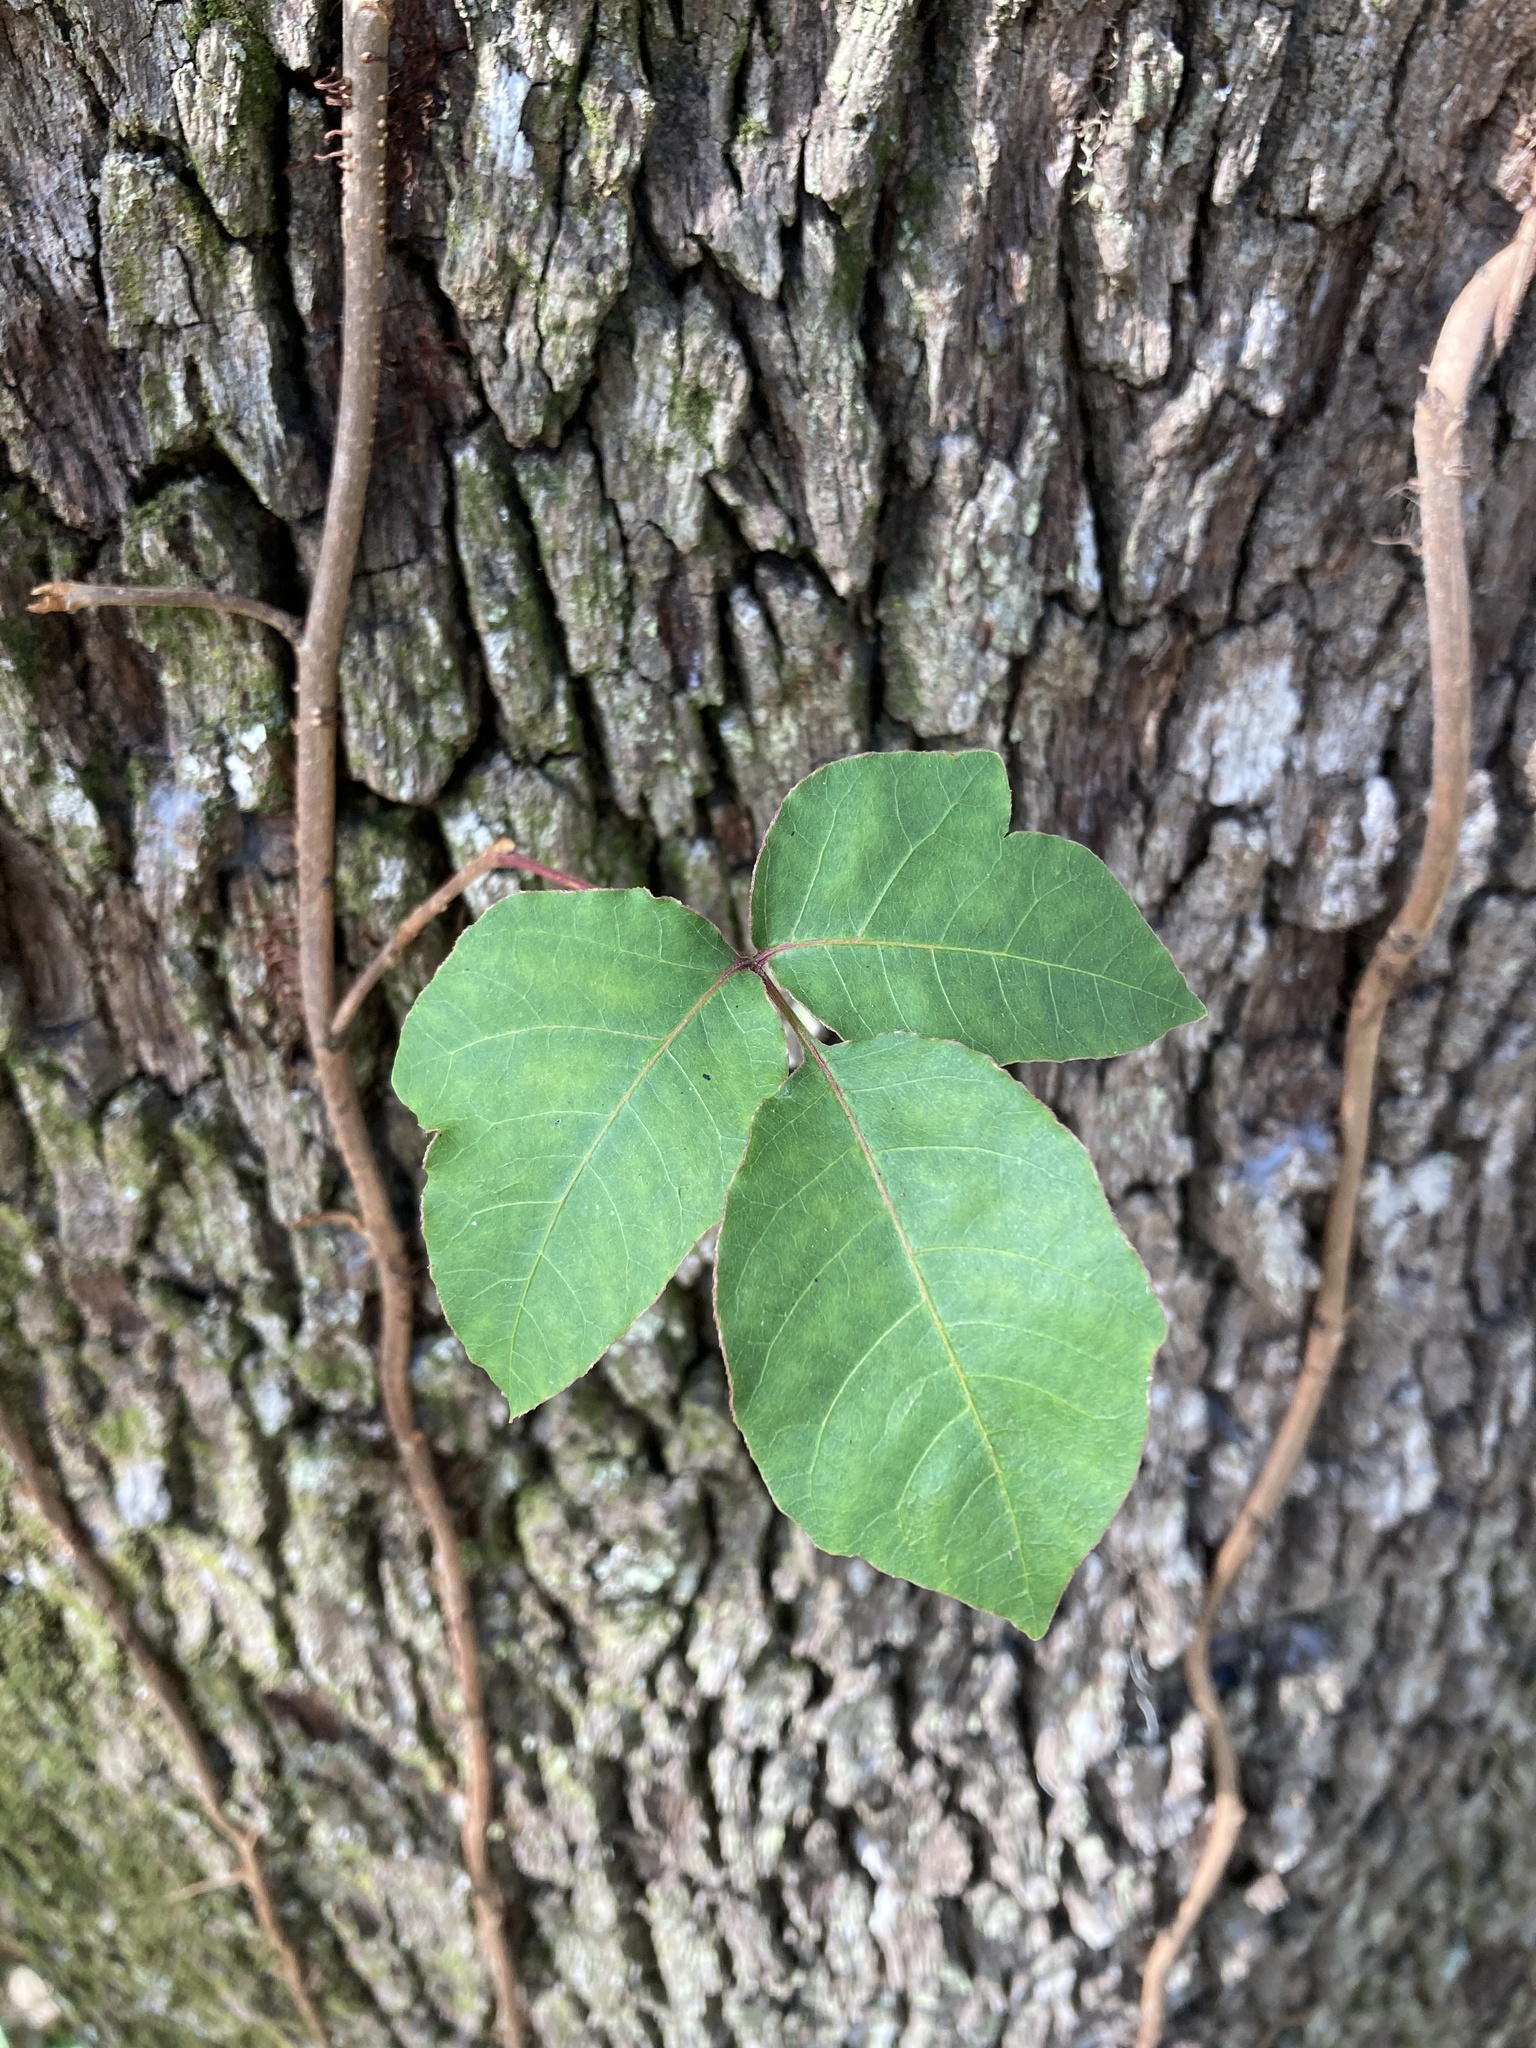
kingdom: Plantae
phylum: Tracheophyta
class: Magnoliopsida
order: Sapindales
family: Anacardiaceae
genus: Toxicodendron
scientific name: Toxicodendron radicans
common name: Poison ivy
